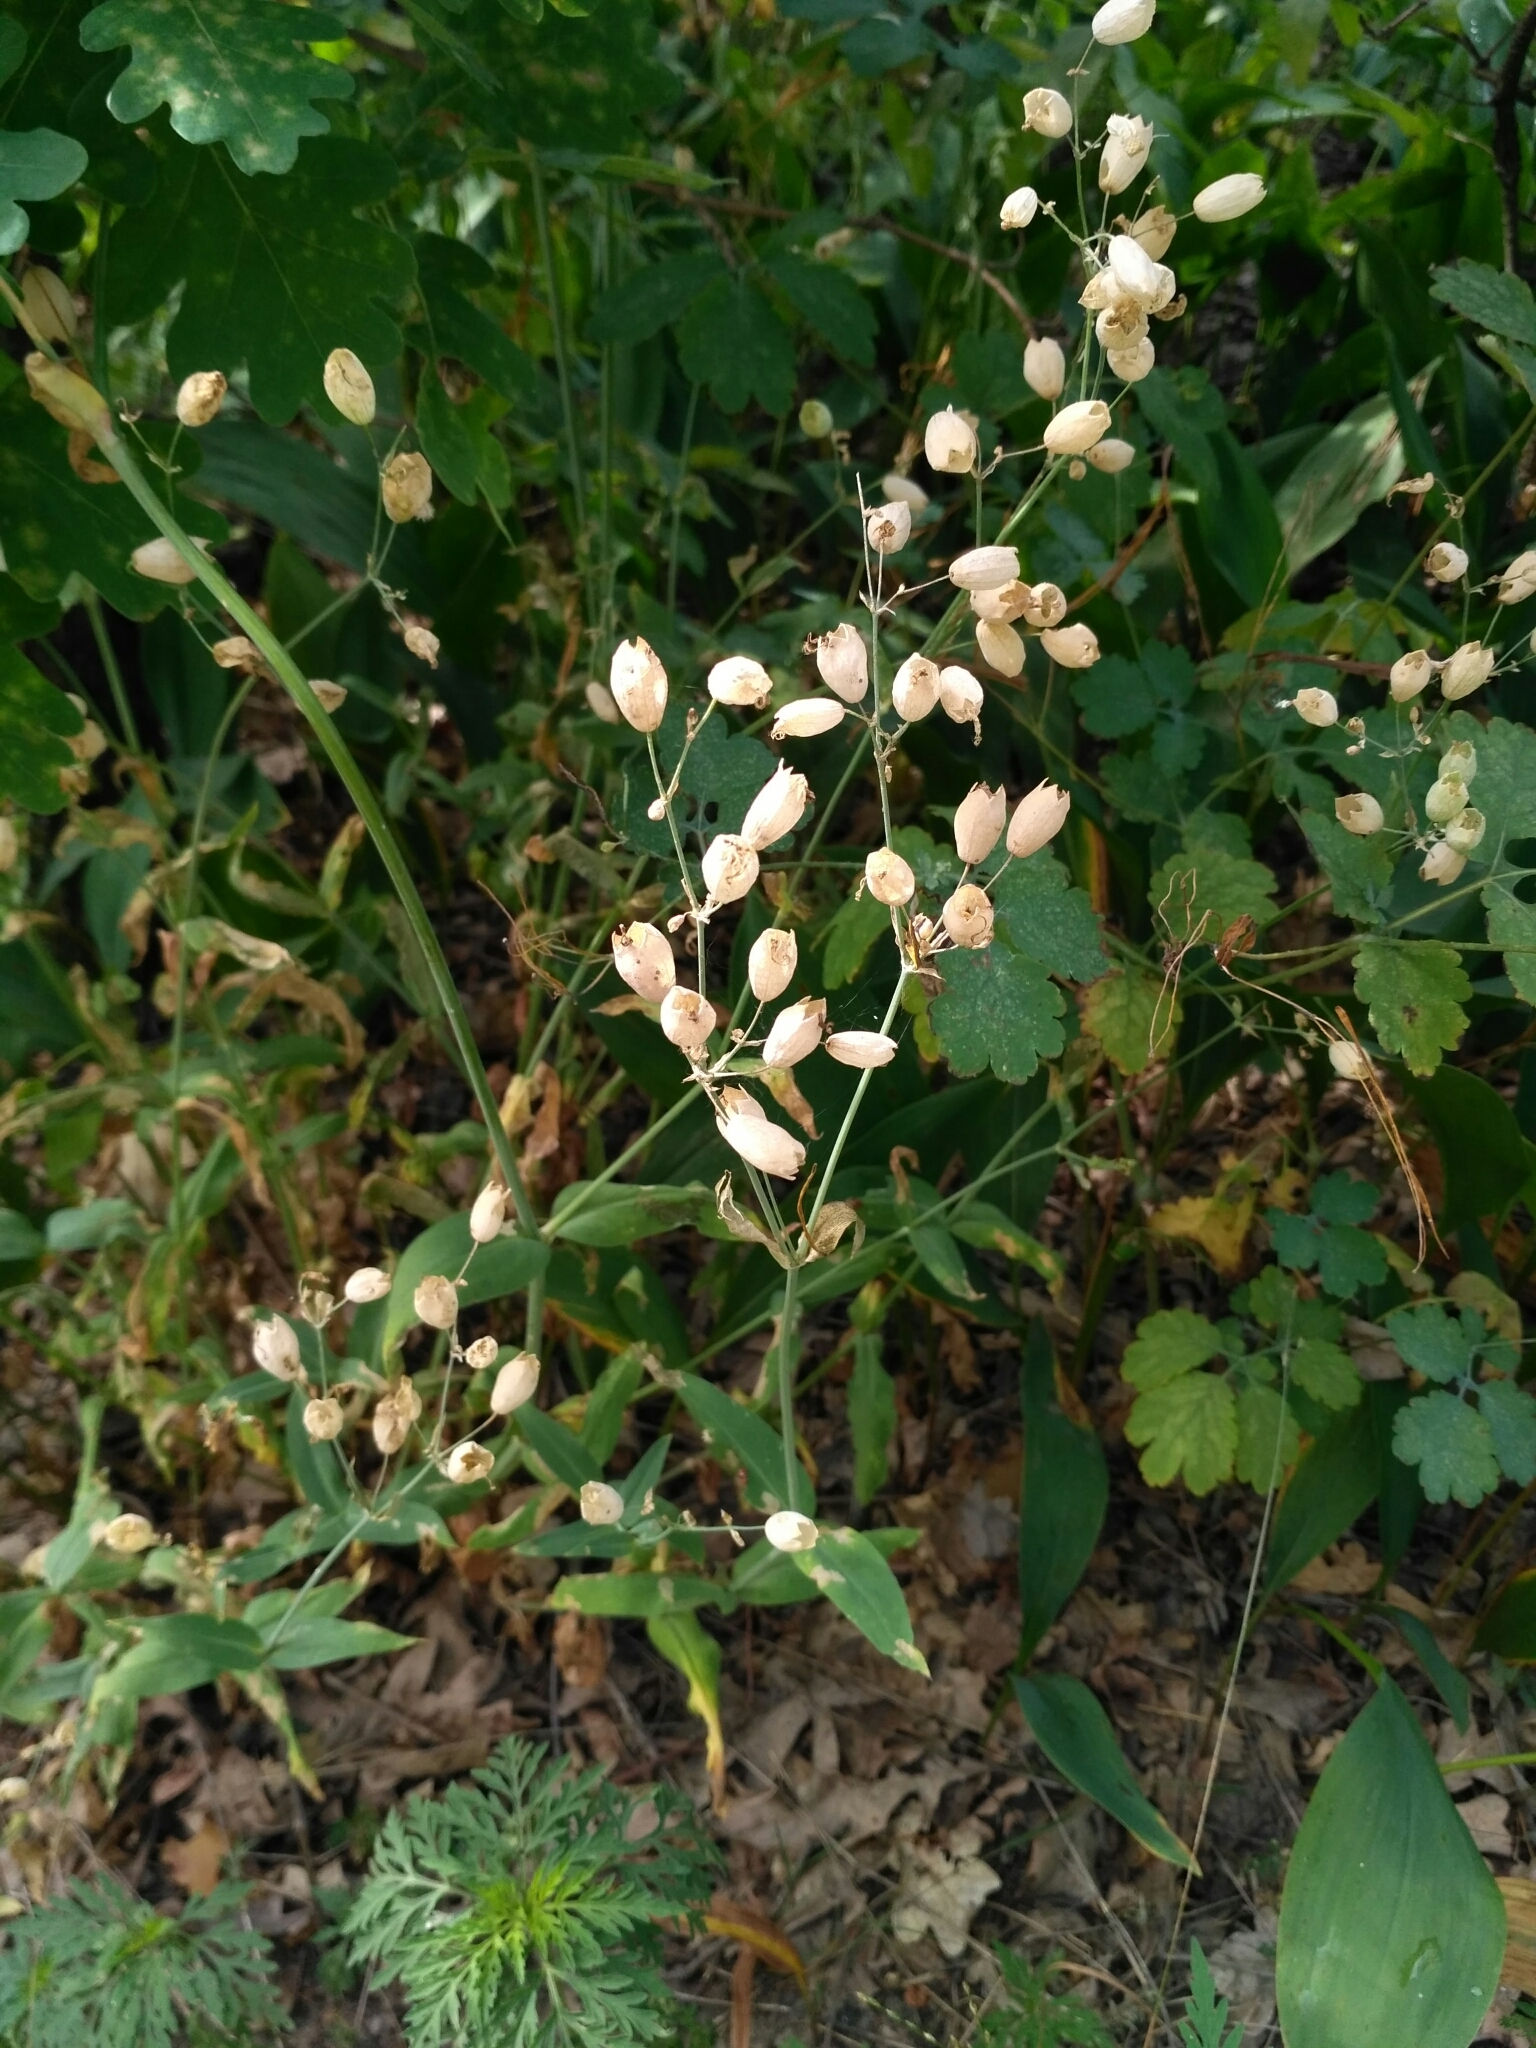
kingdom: Plantae
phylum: Tracheophyta
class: Magnoliopsida
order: Caryophyllales
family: Caryophyllaceae
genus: Silene
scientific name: Silene vulgaris
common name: Bladder campion
